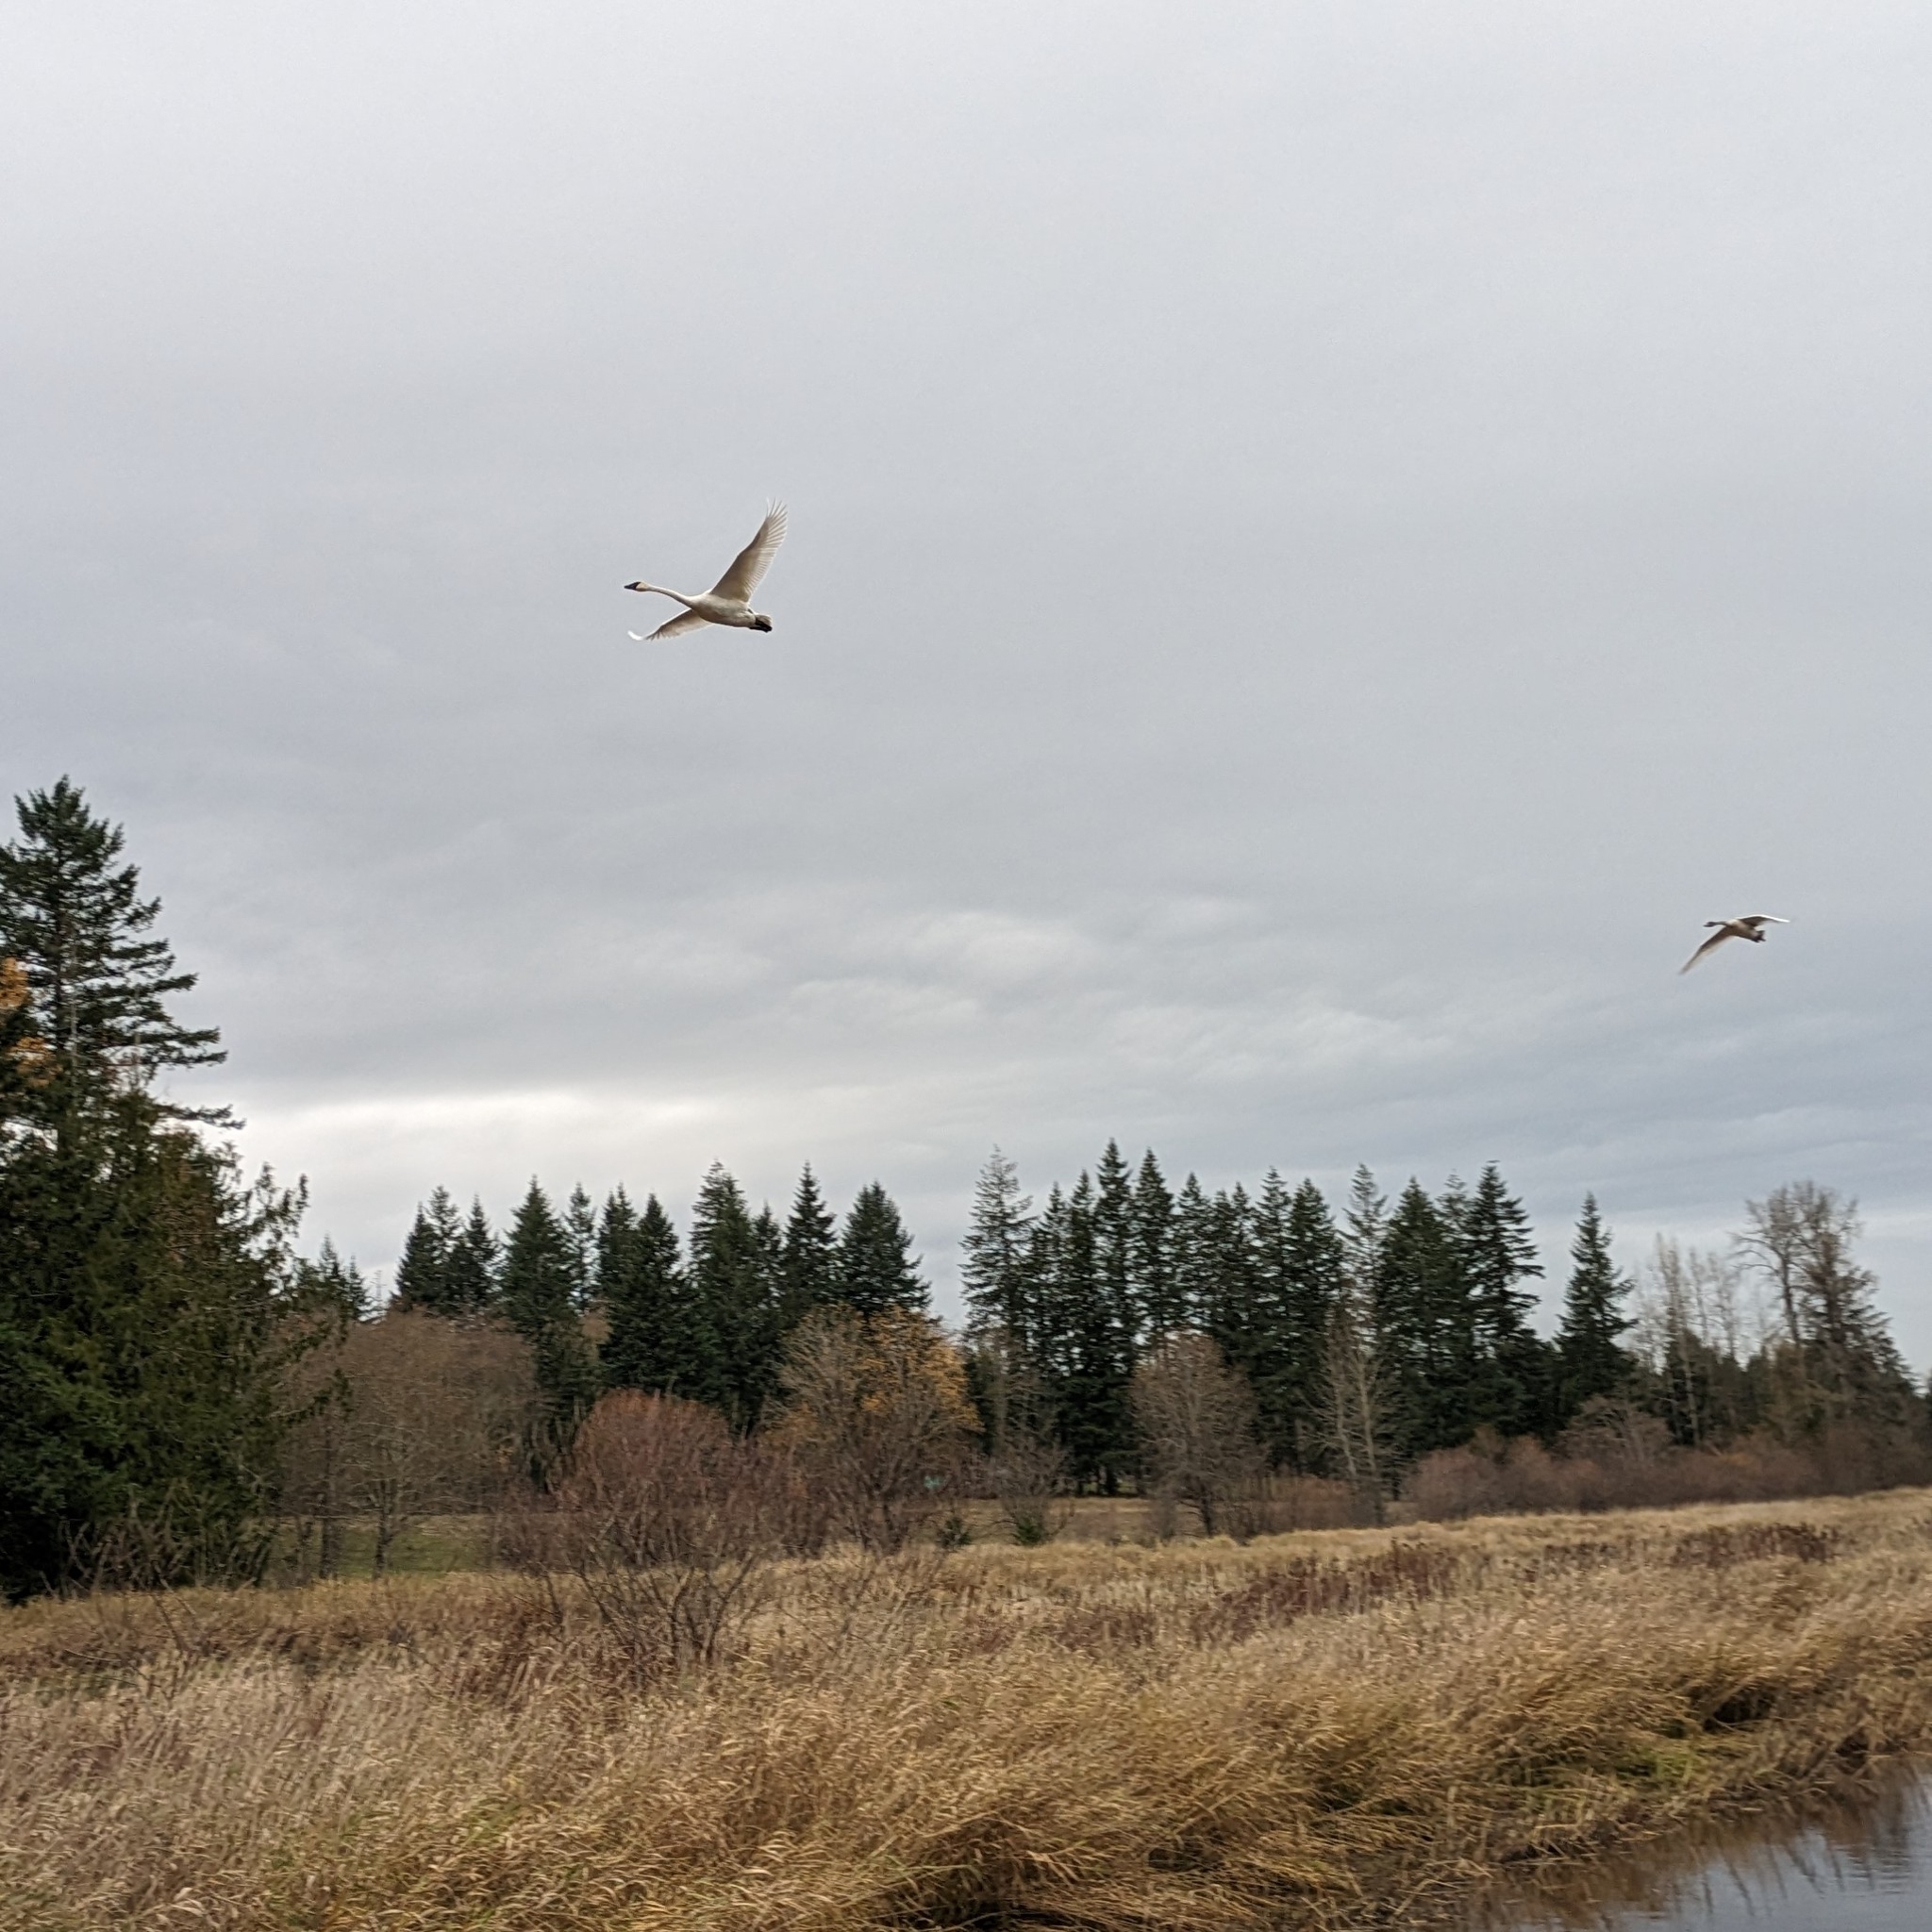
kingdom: Animalia
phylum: Chordata
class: Aves
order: Anseriformes
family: Anatidae
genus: Cygnus
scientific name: Cygnus buccinator
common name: Trumpeter swan
